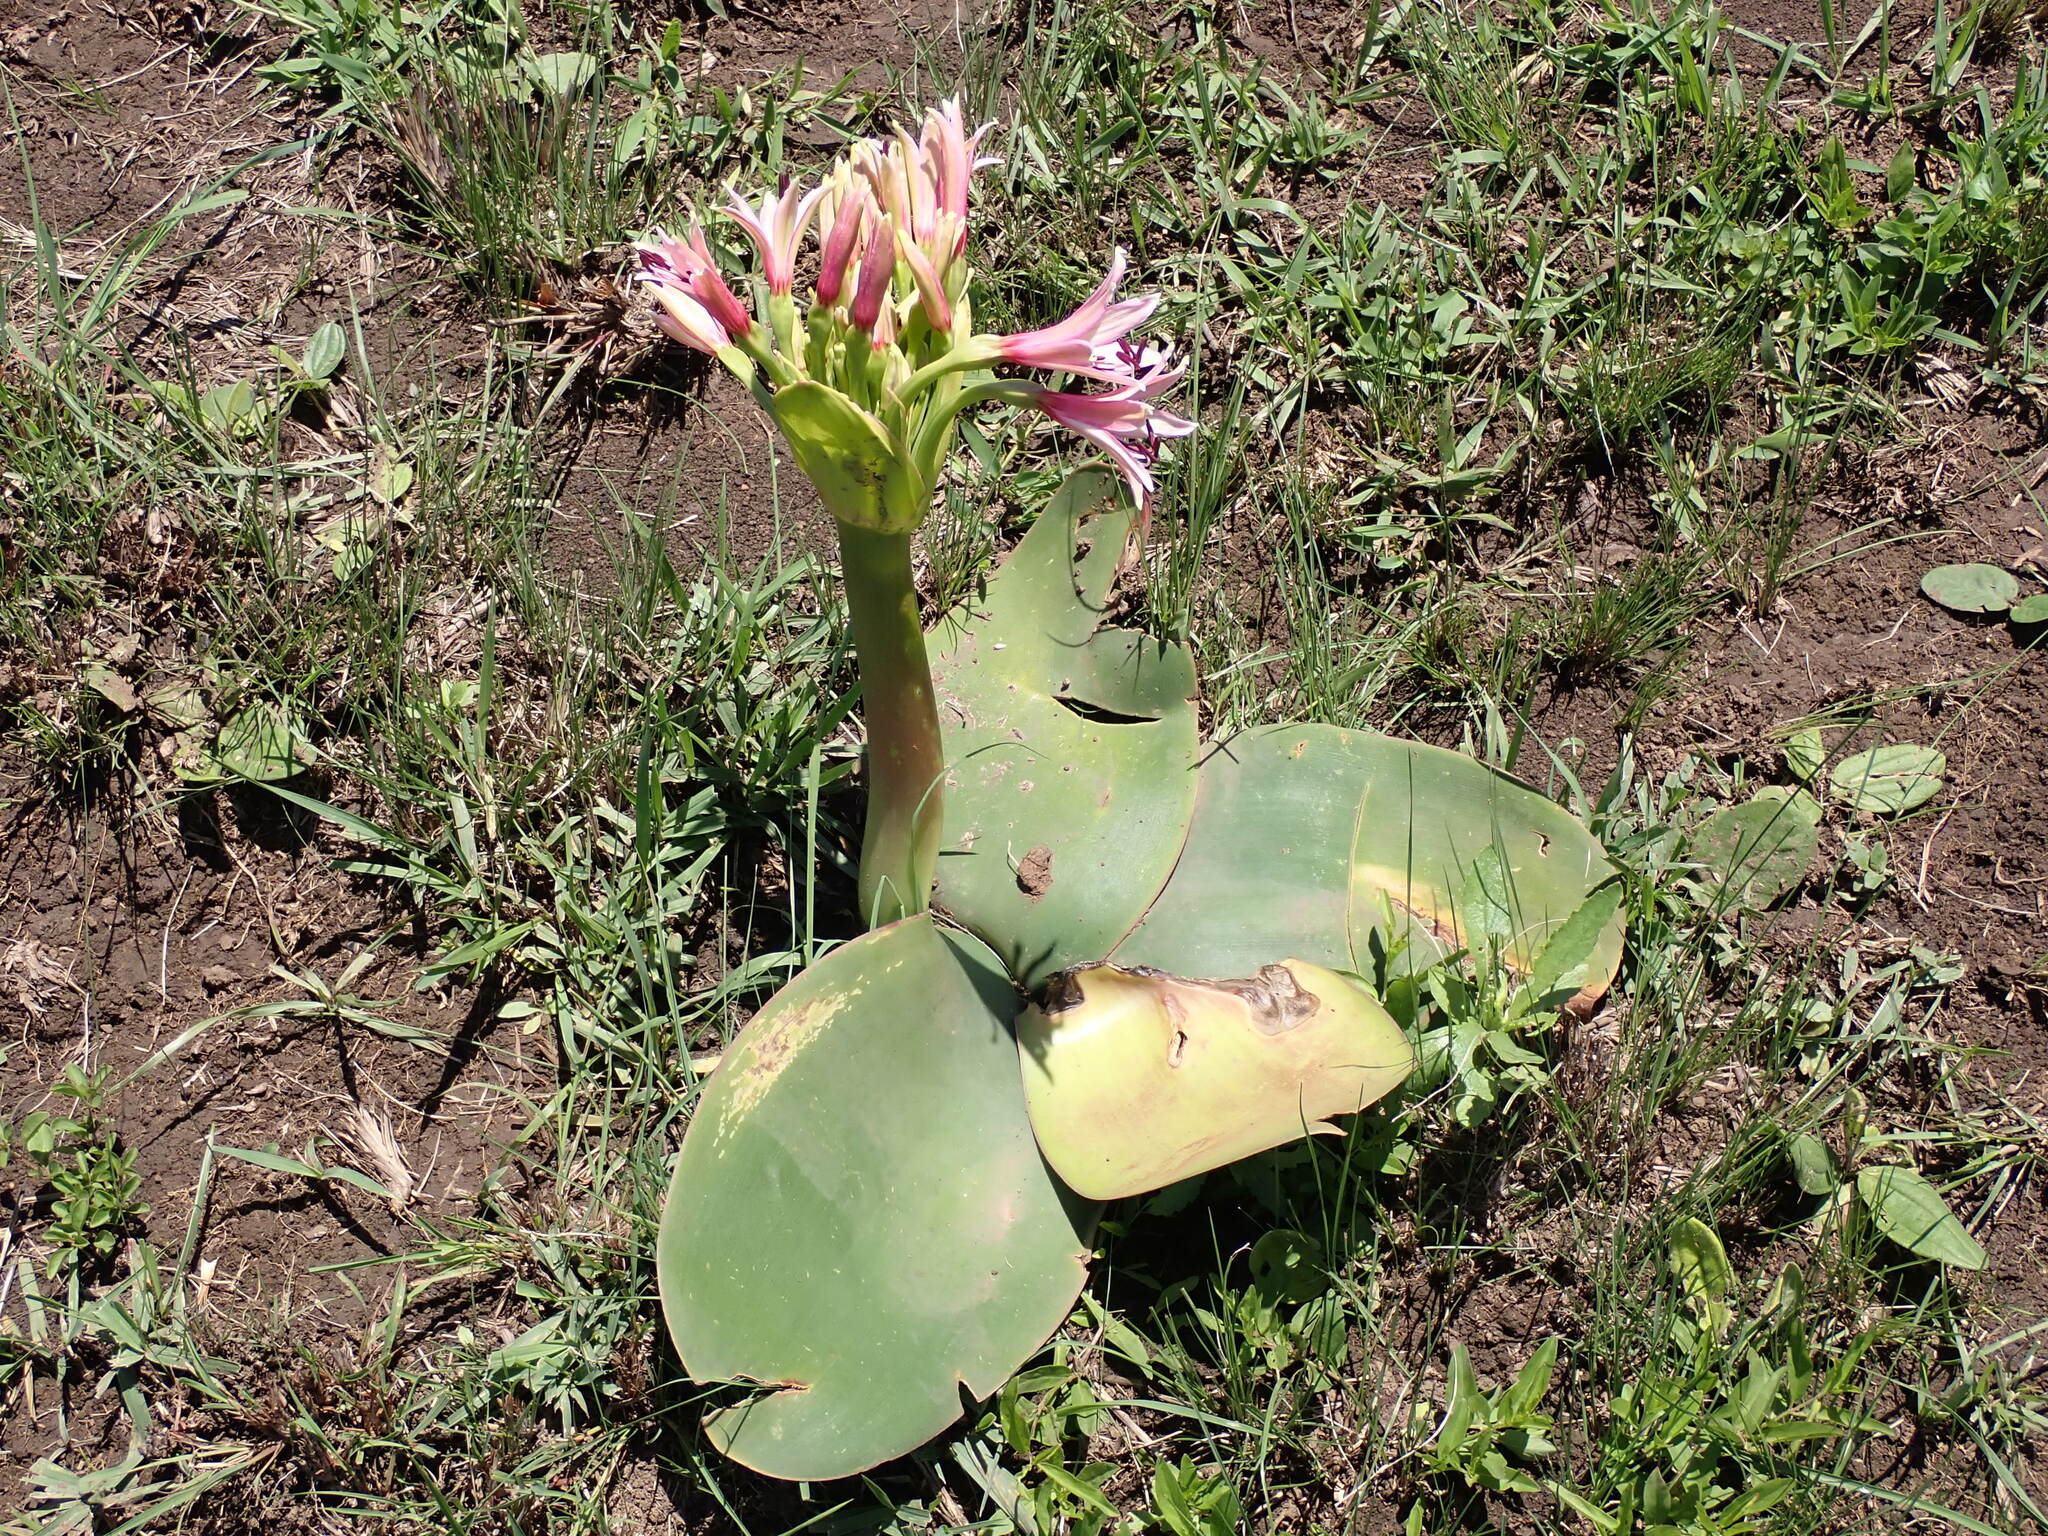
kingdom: Plantae
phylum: Tracheophyta
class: Liliopsida
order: Asparagales
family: Amaryllidaceae
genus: Brunsvigia
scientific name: Brunsvigia radulosa
